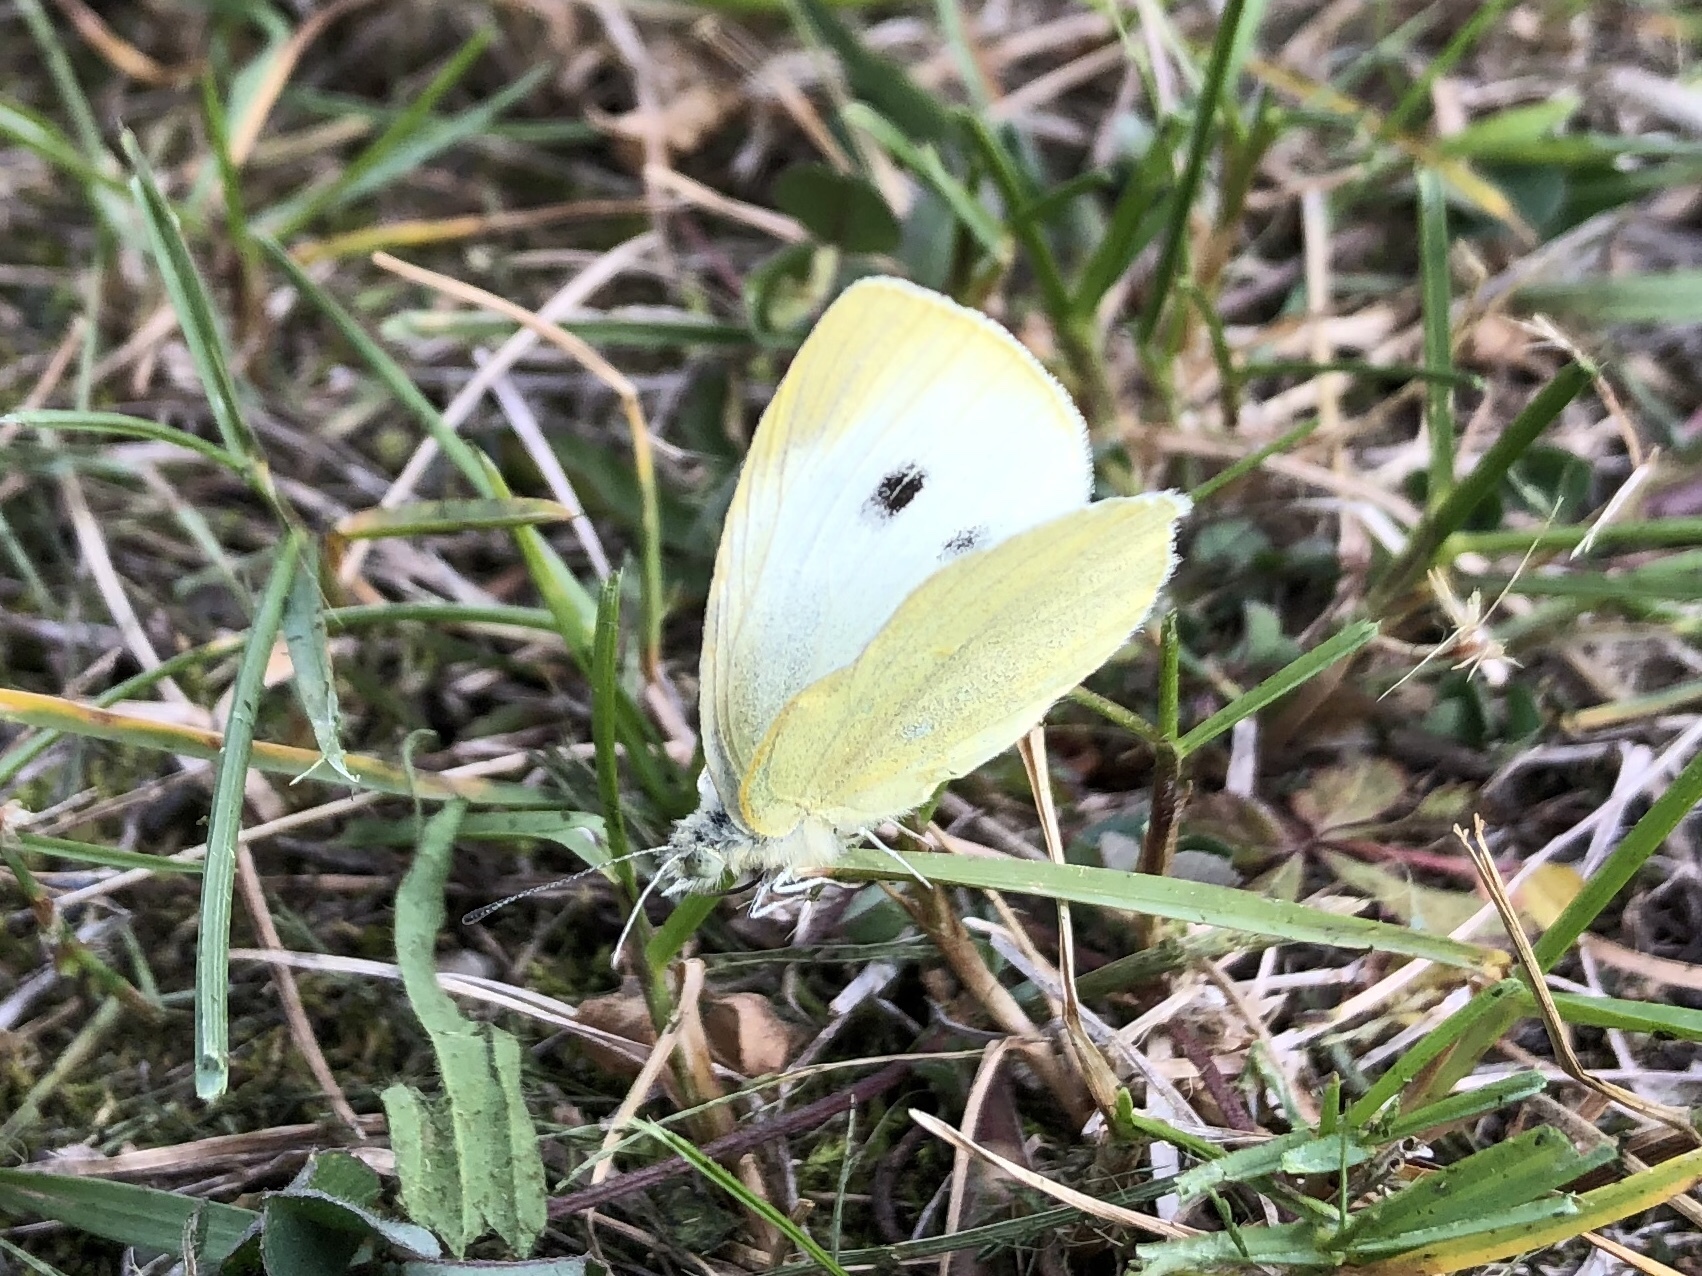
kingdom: Animalia
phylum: Arthropoda
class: Insecta
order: Lepidoptera
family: Pieridae
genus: Pieris
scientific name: Pieris rapae
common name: Small white
